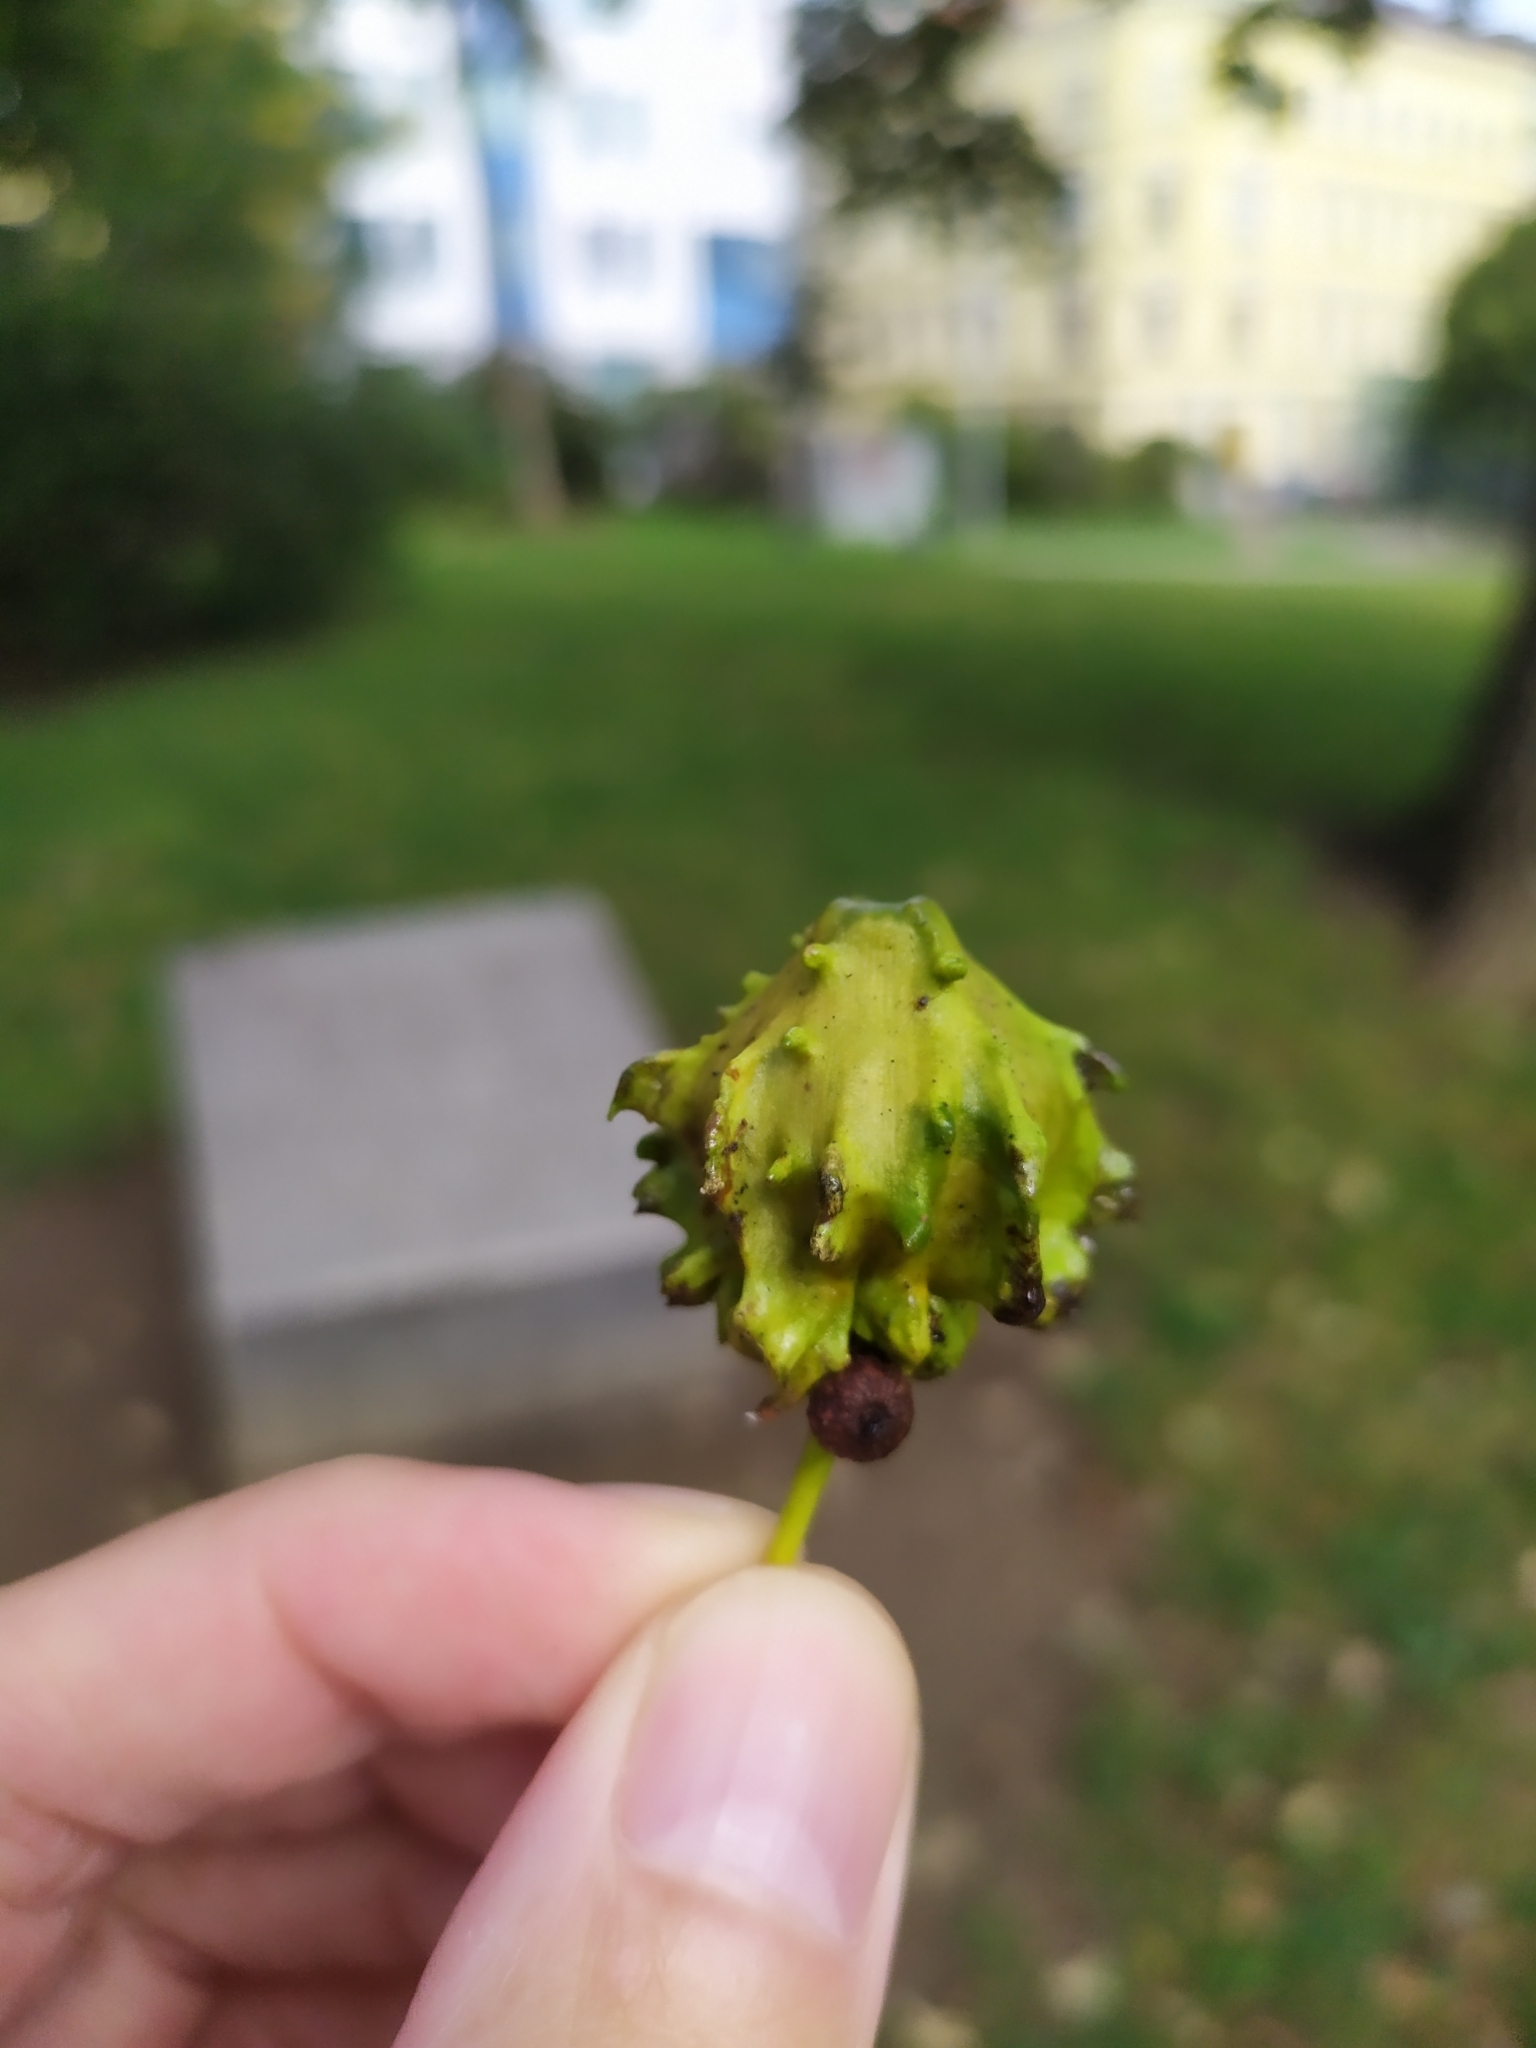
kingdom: Animalia
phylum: Arthropoda
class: Insecta
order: Hymenoptera
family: Cynipidae
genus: Andricus
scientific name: Andricus quercuscalicis
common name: Knopper gall
